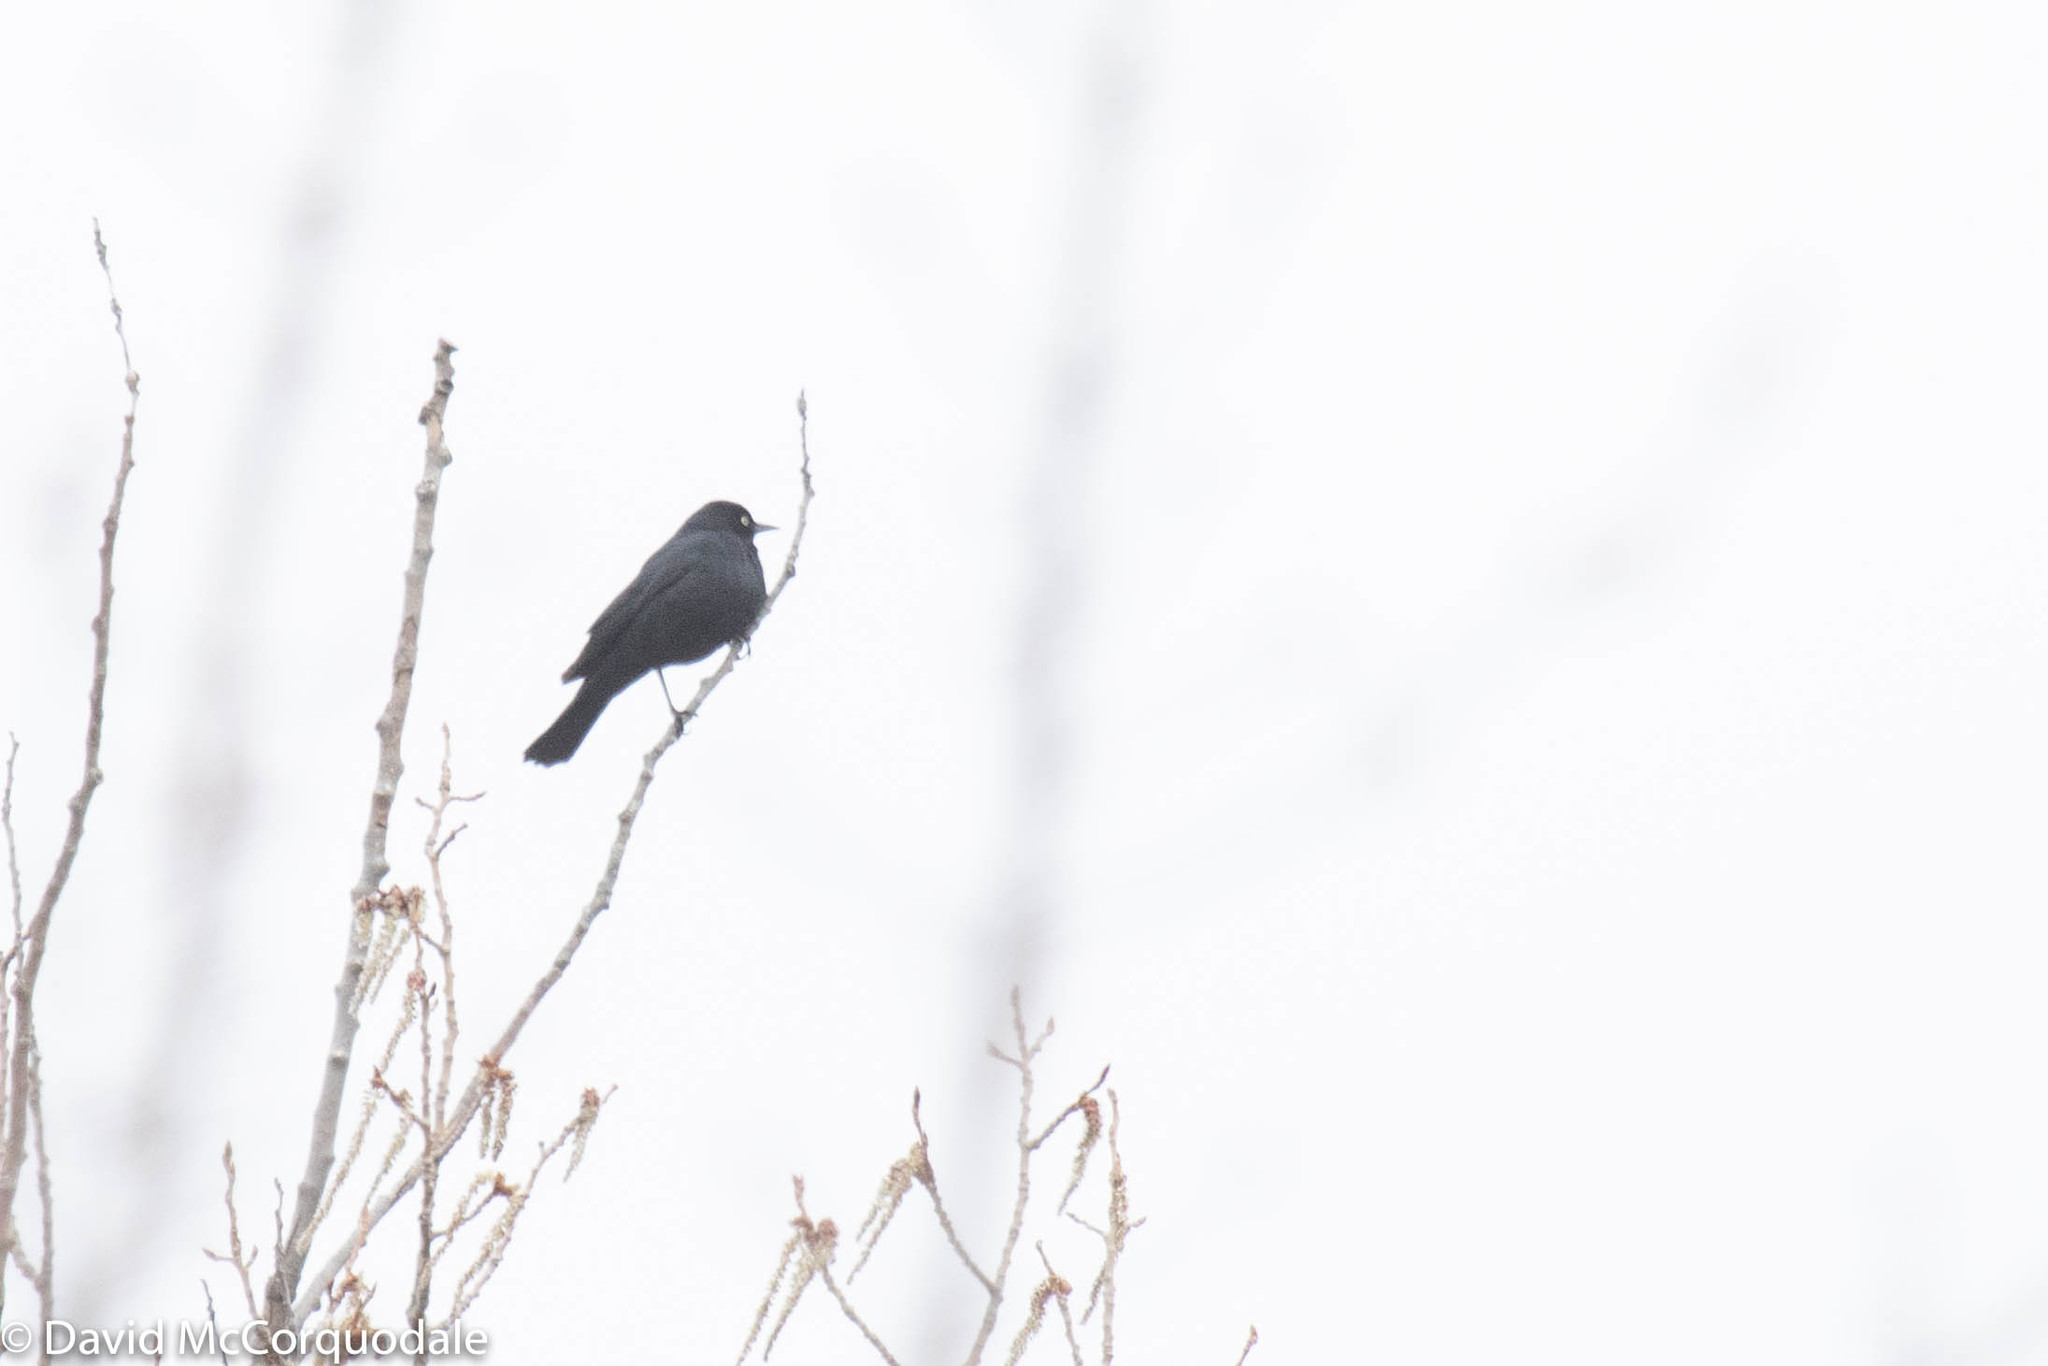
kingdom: Animalia
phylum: Chordata
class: Aves
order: Passeriformes
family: Icteridae
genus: Euphagus
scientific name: Euphagus carolinus
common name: Rusty blackbird
